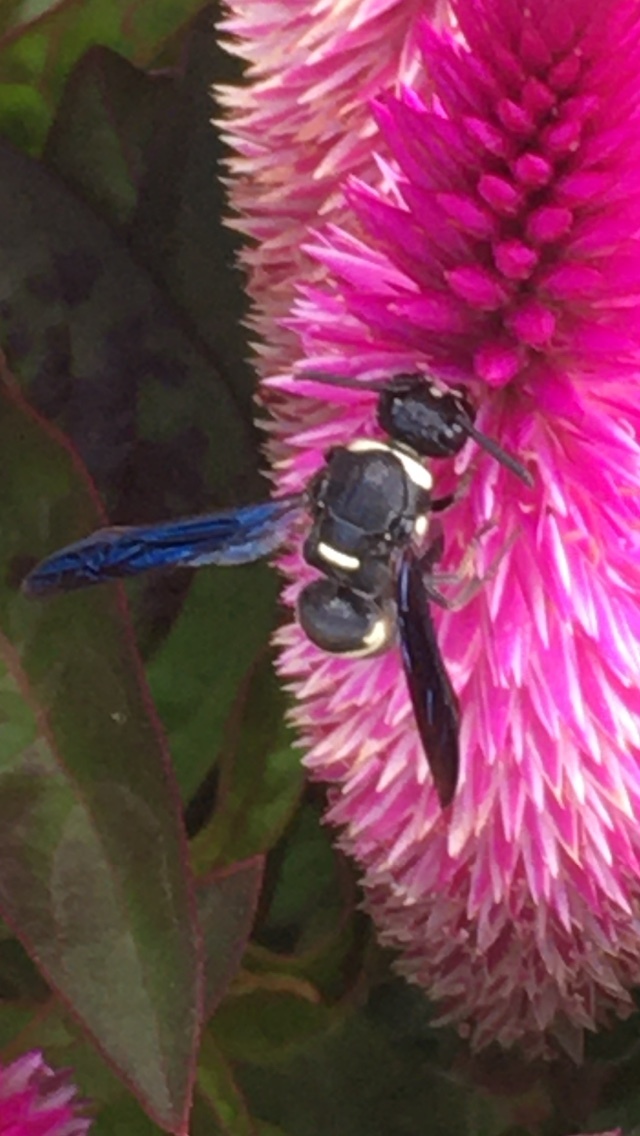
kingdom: Animalia
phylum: Arthropoda
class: Insecta
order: Hymenoptera
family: Eumenidae
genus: Monobia
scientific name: Monobia quadridens
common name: Four-toothed mason wasp
